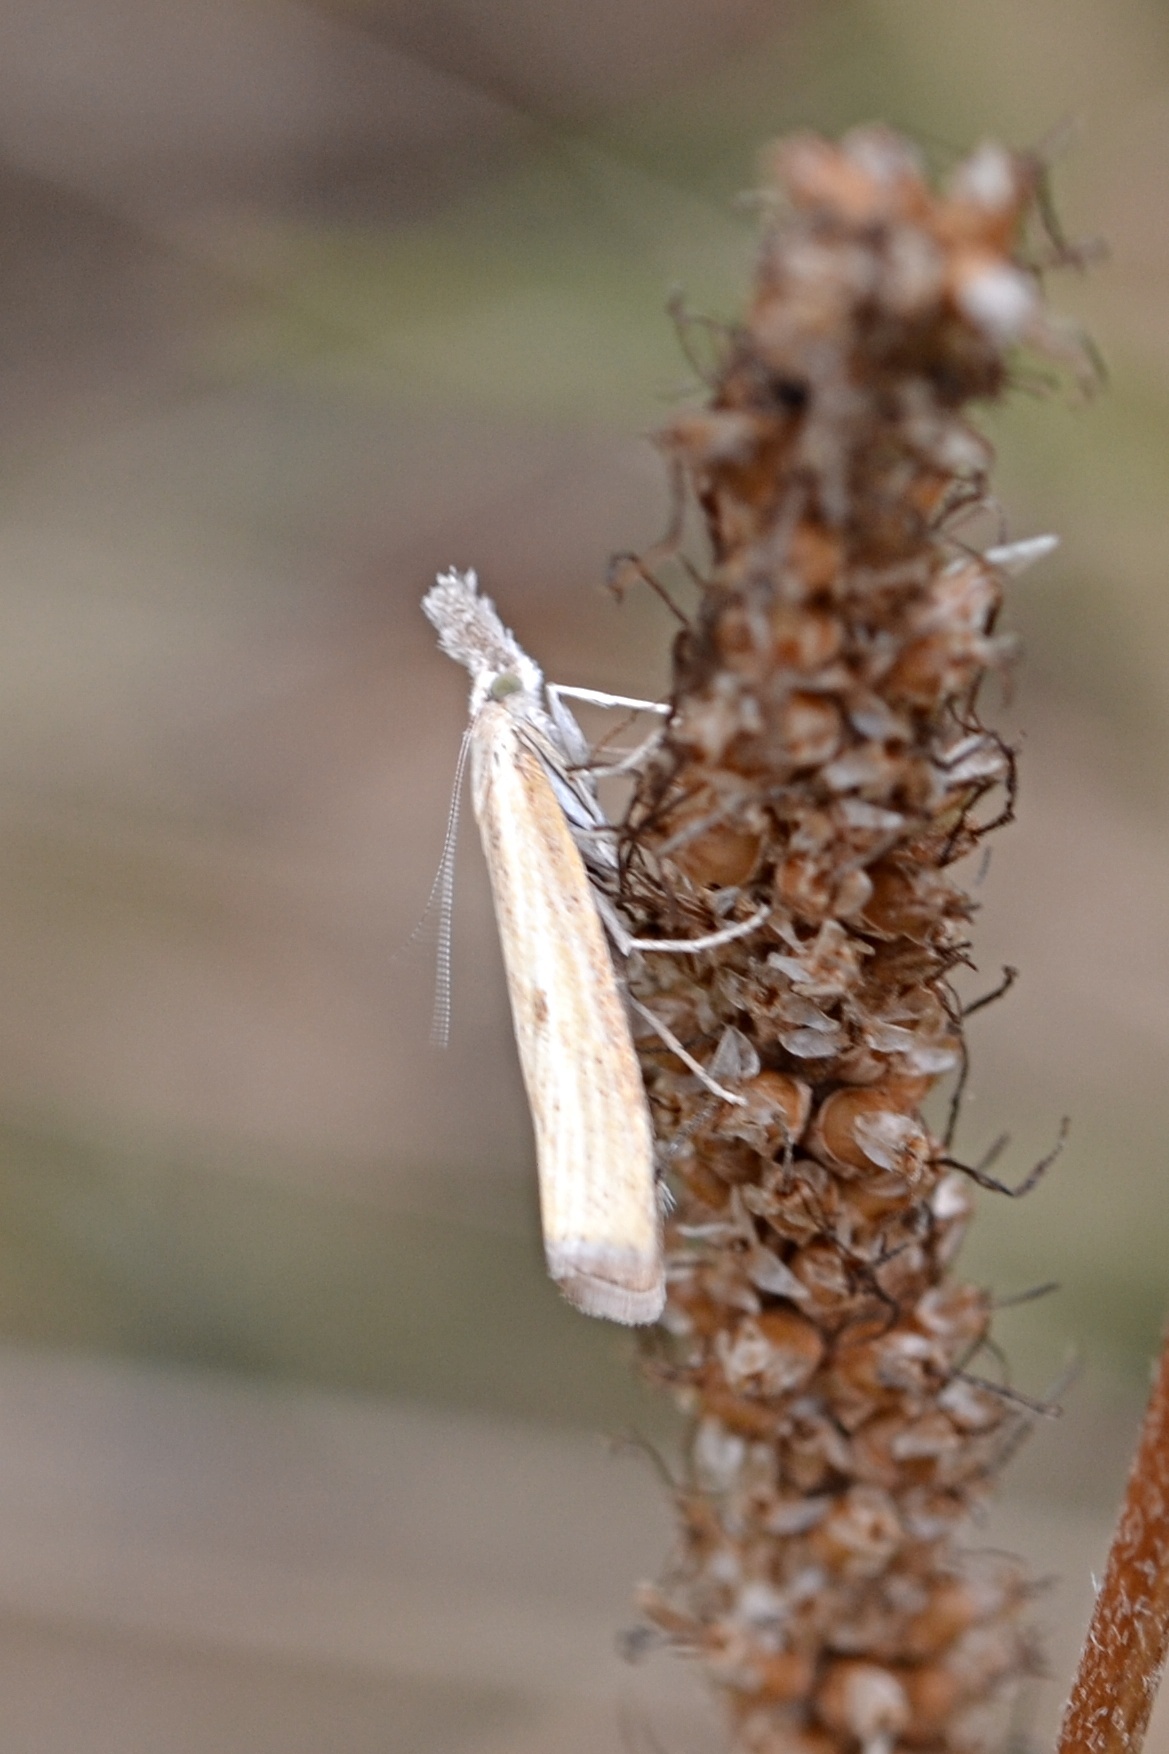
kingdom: Animalia
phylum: Arthropoda
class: Insecta
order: Lepidoptera
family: Crambidae
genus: Agriphila
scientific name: Agriphila inquinatella
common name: Barred grass-veneer
